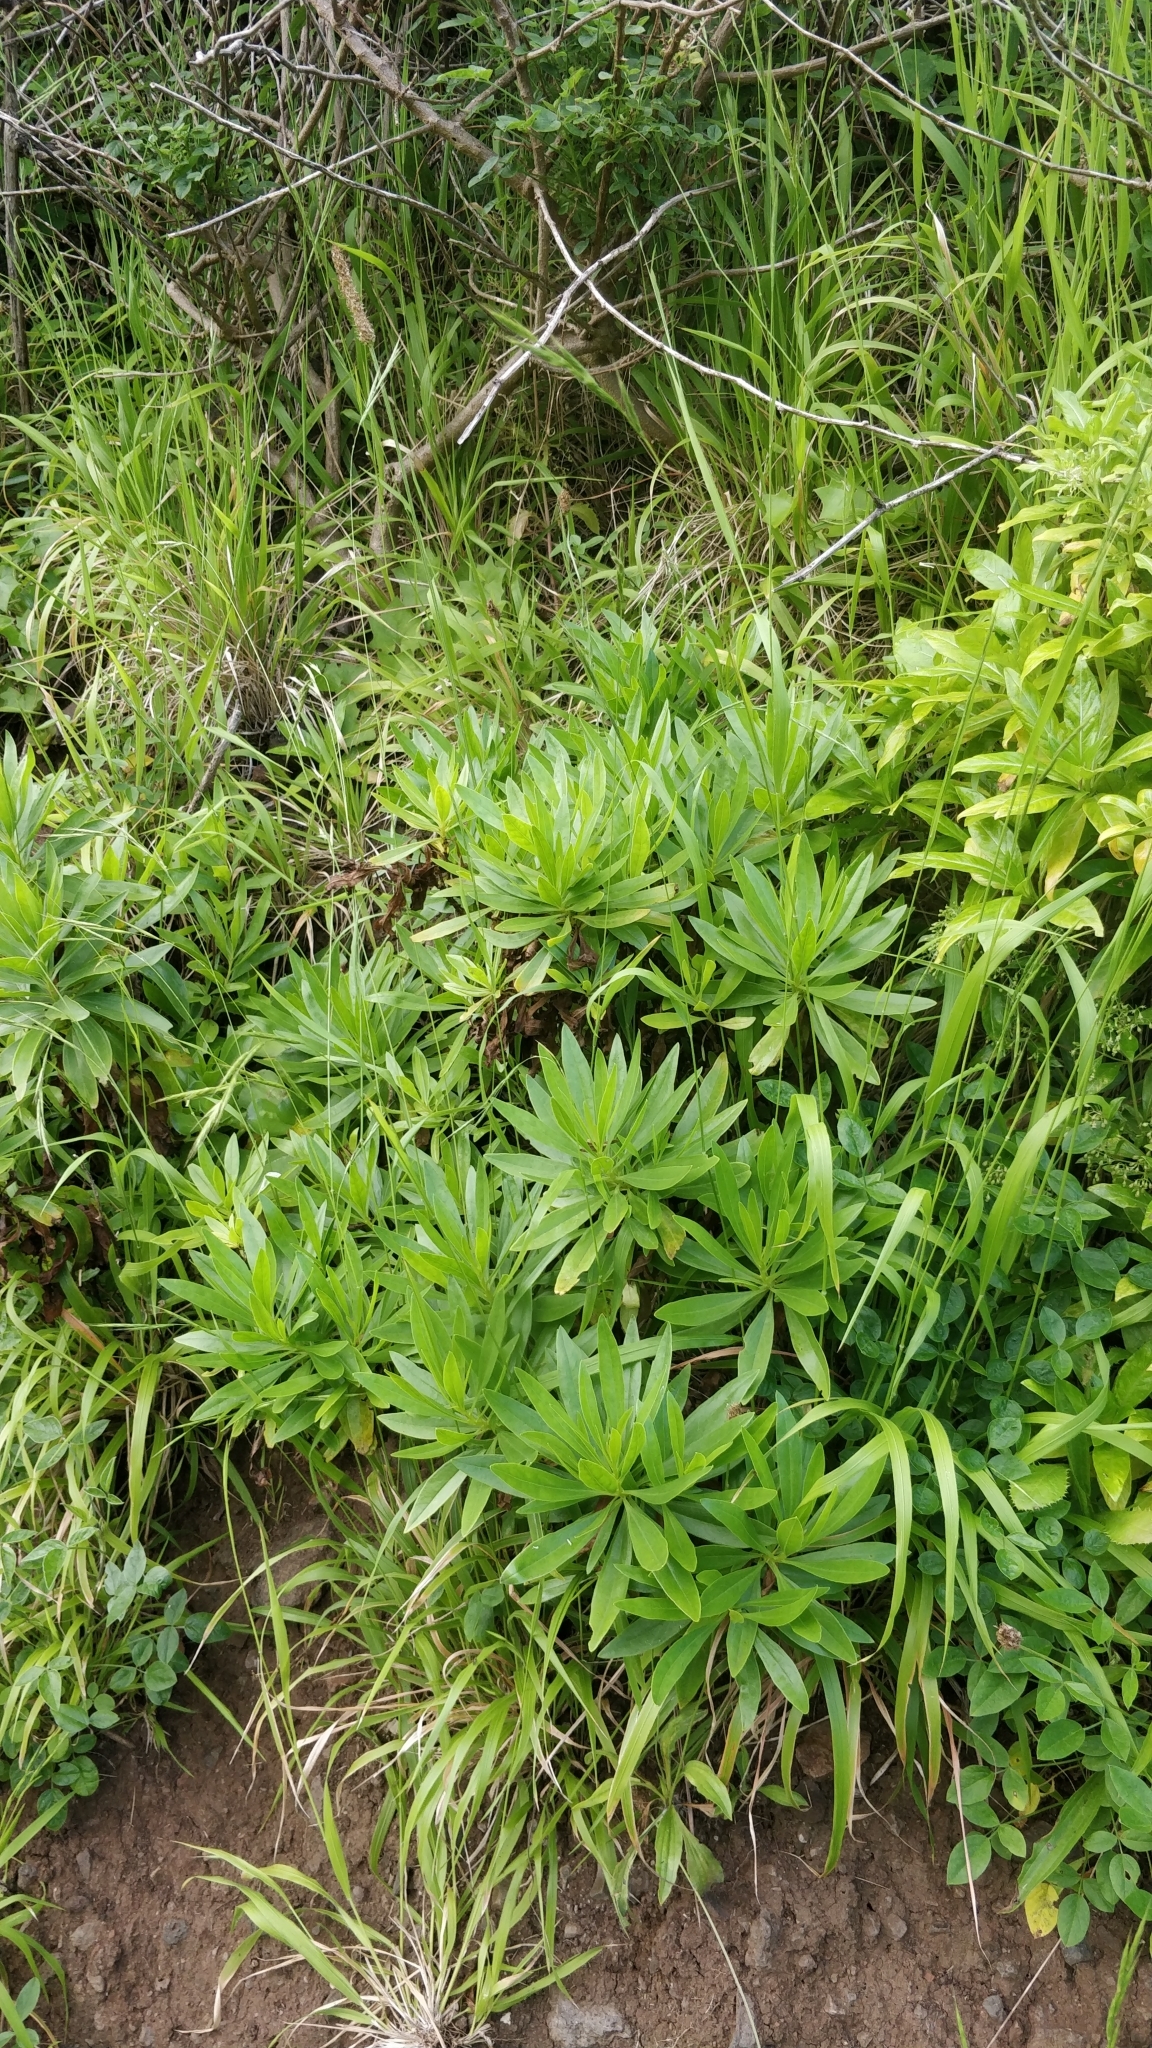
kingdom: Plantae
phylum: Tracheophyta
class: Magnoliopsida
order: Lamiales
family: Plantaginaceae
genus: Globularia
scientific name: Globularia salicina
